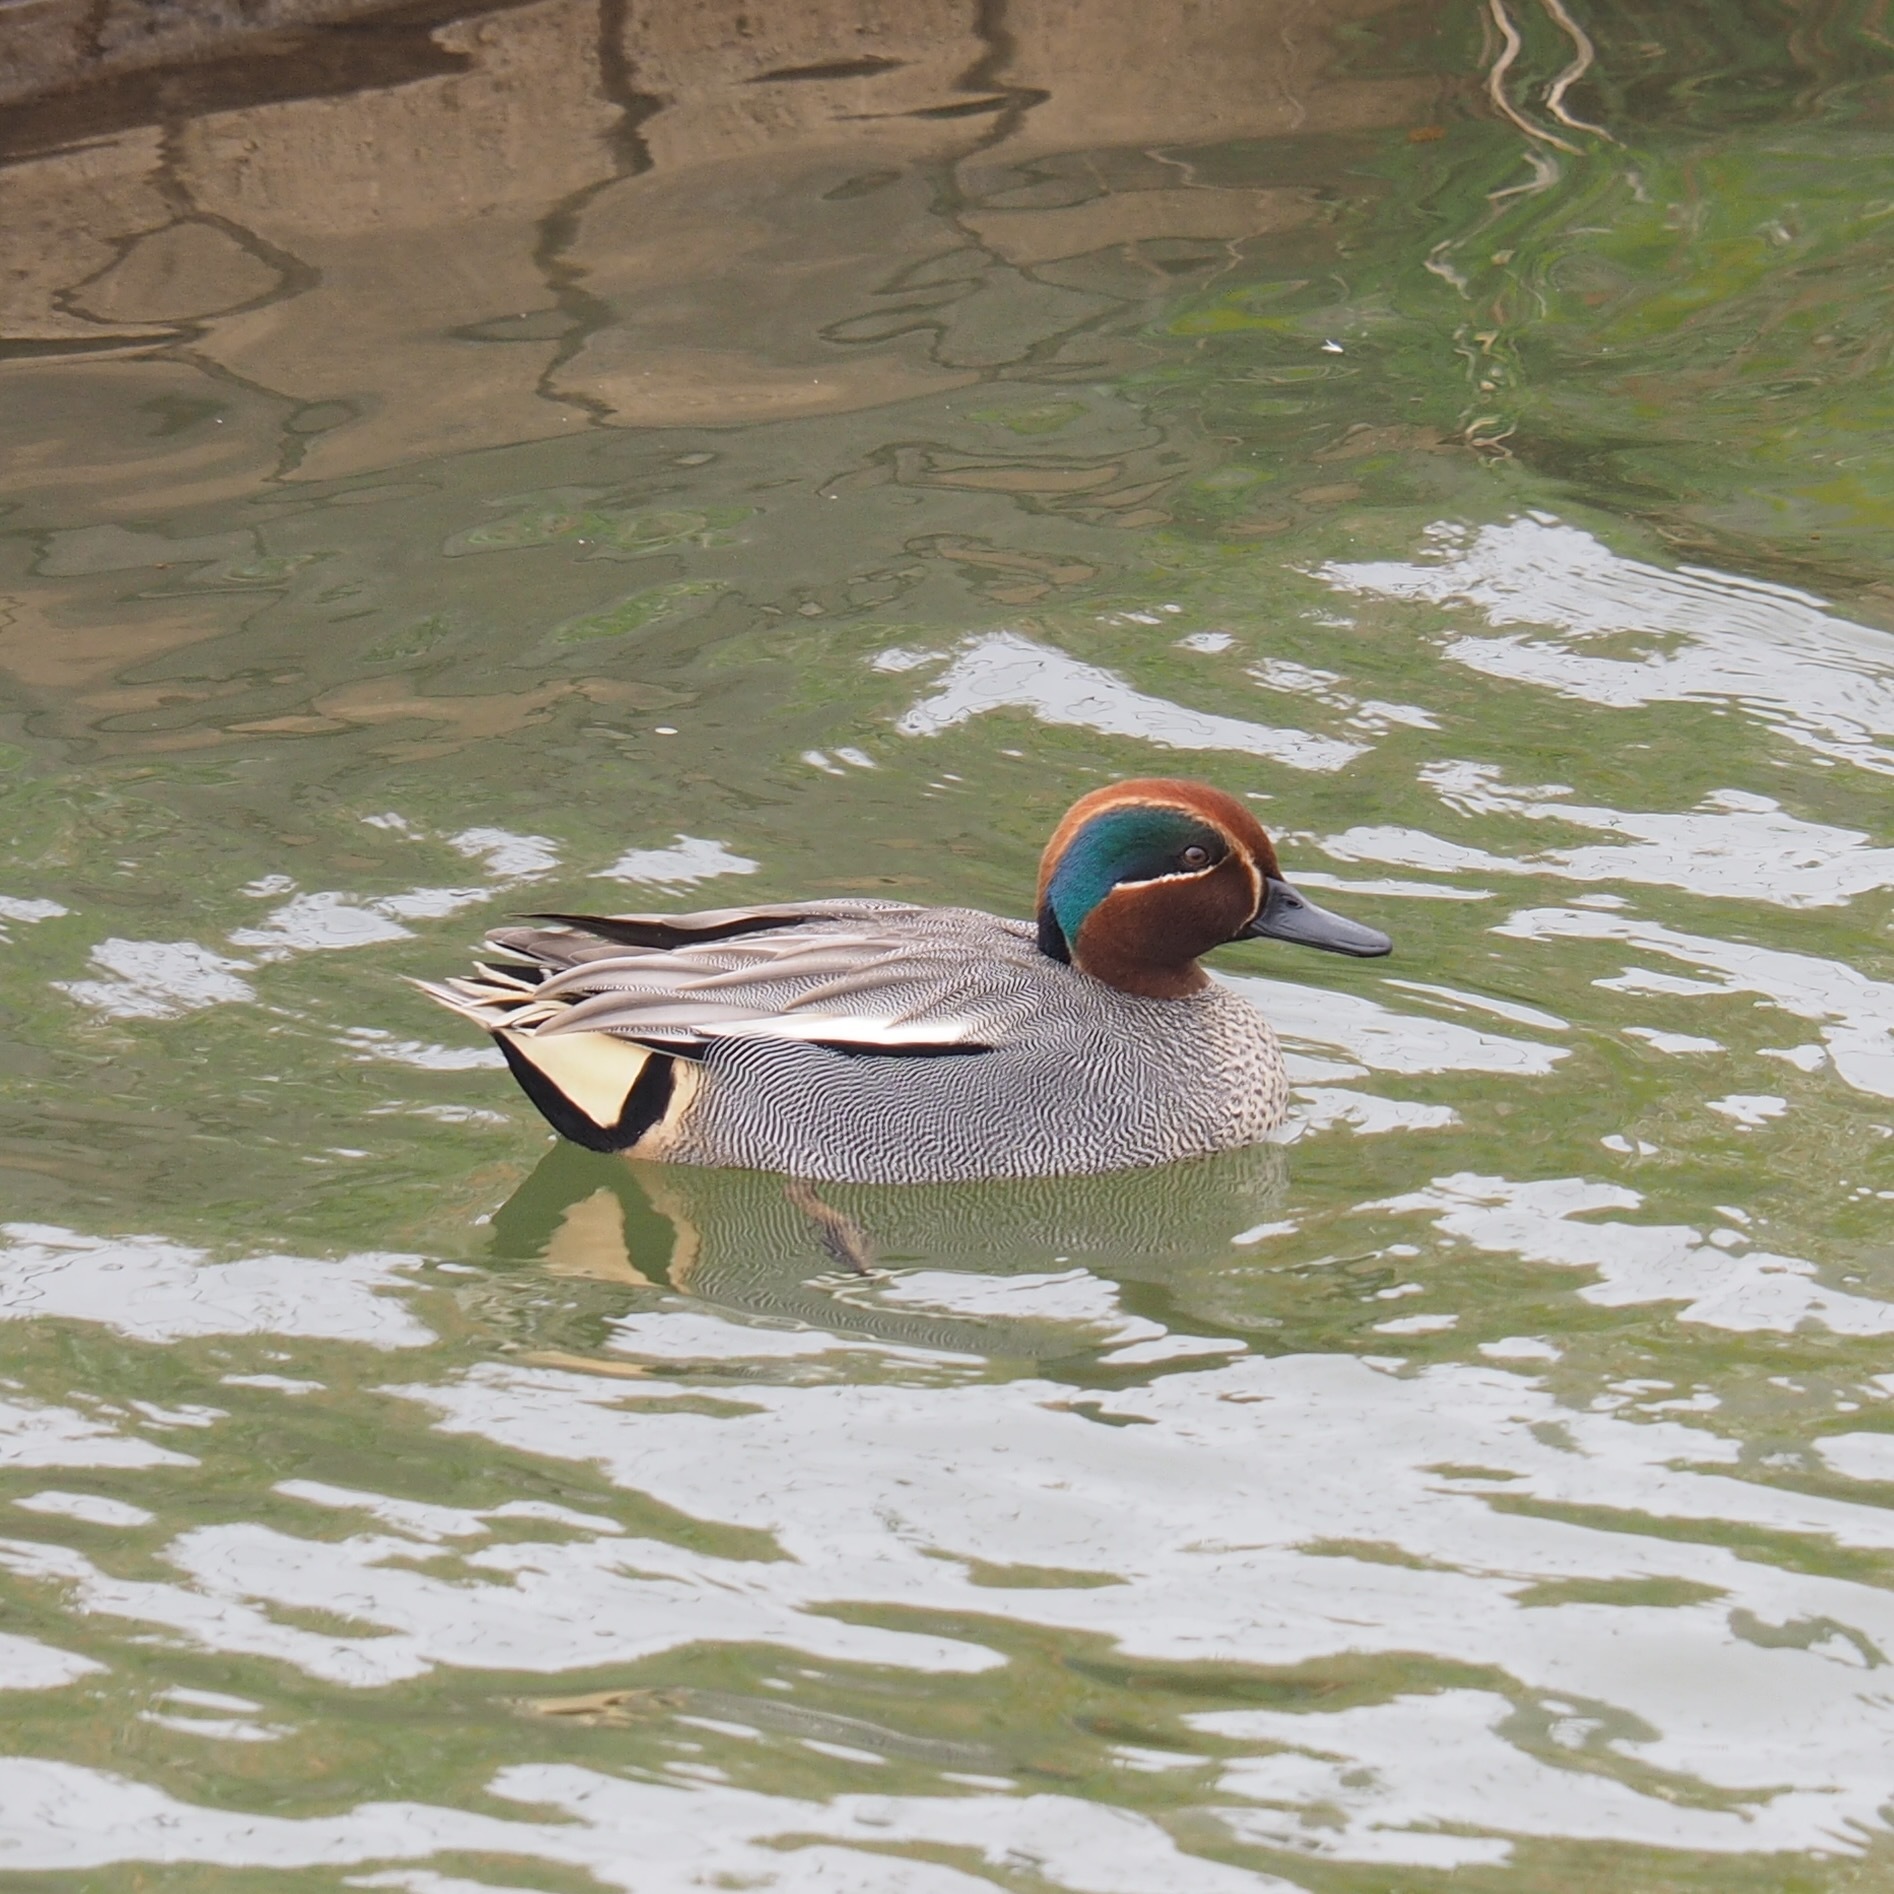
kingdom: Animalia
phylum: Chordata
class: Aves
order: Anseriformes
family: Anatidae
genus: Anas
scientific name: Anas crecca
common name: Eurasian teal
